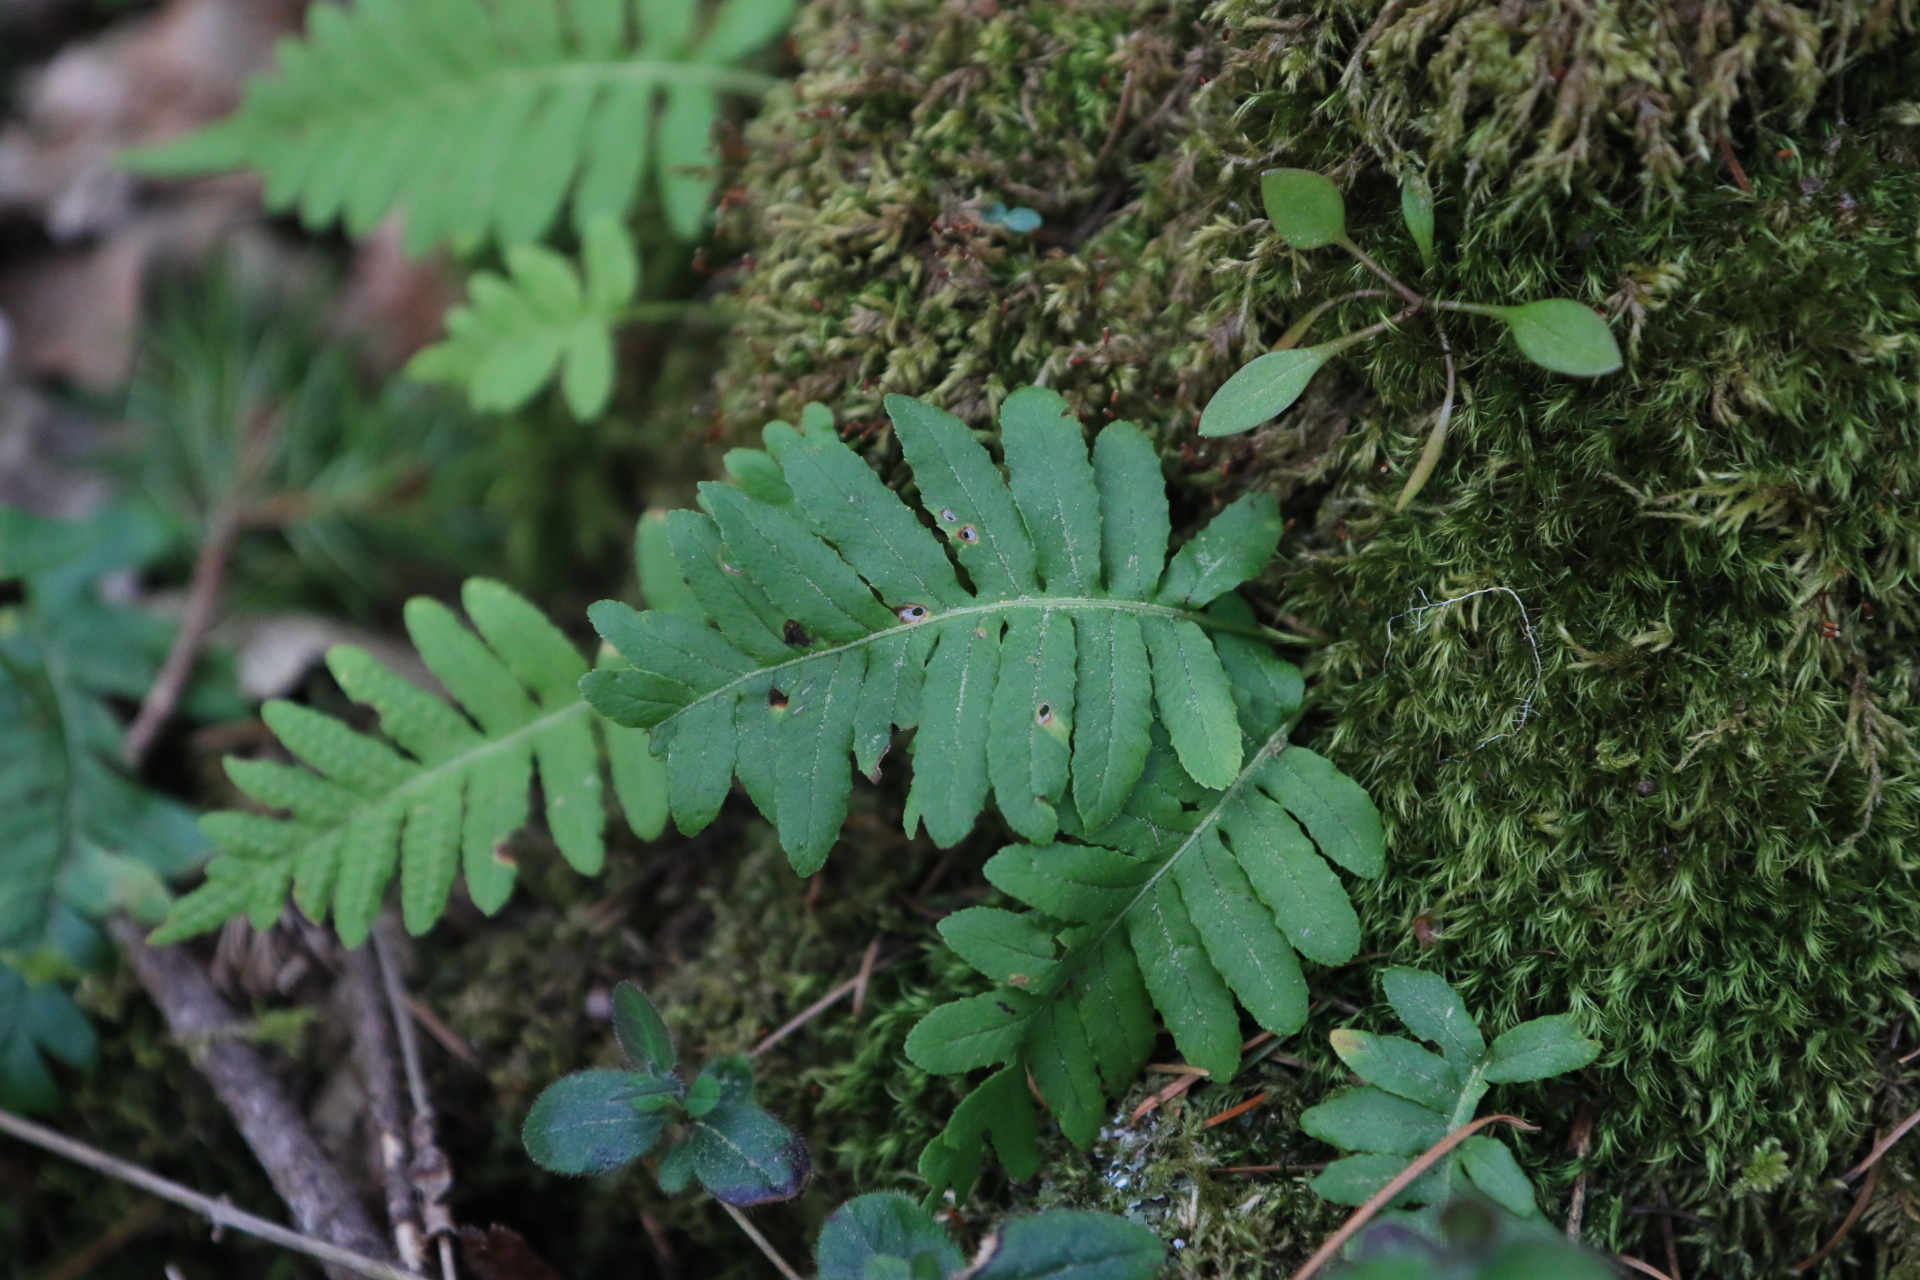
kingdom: Plantae
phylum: Tracheophyta
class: Polypodiopsida
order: Polypodiales
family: Polypodiaceae
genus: Polypodium
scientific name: Polypodium glycyrrhiza
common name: Licorice fern
